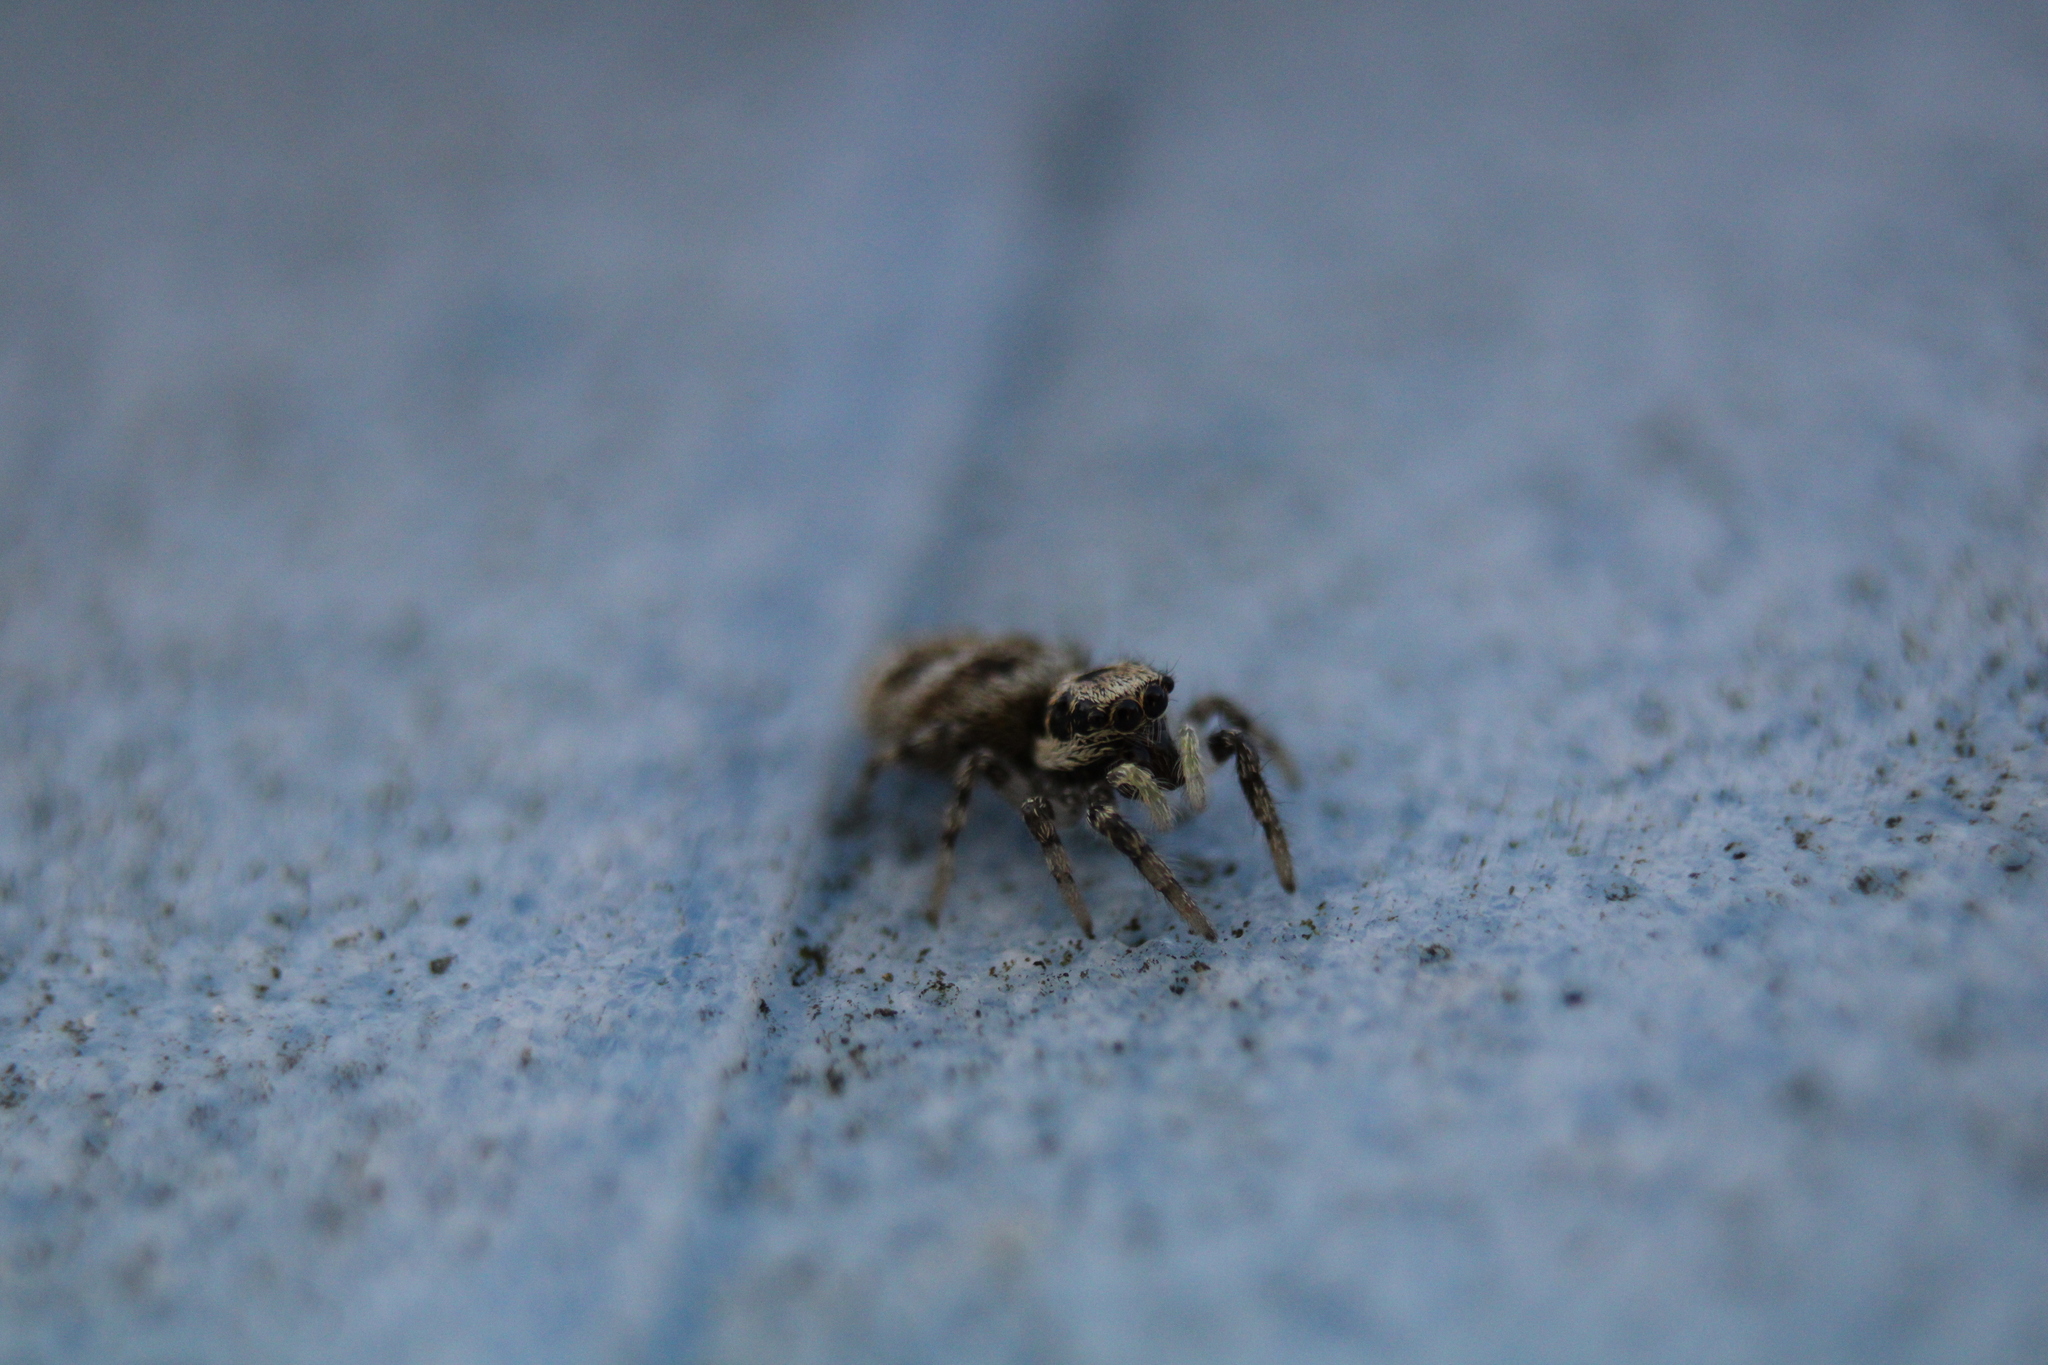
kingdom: Animalia
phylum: Arthropoda
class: Arachnida
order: Araneae
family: Salticidae
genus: Salticus
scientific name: Salticus scenicus
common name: Zebra jumper
